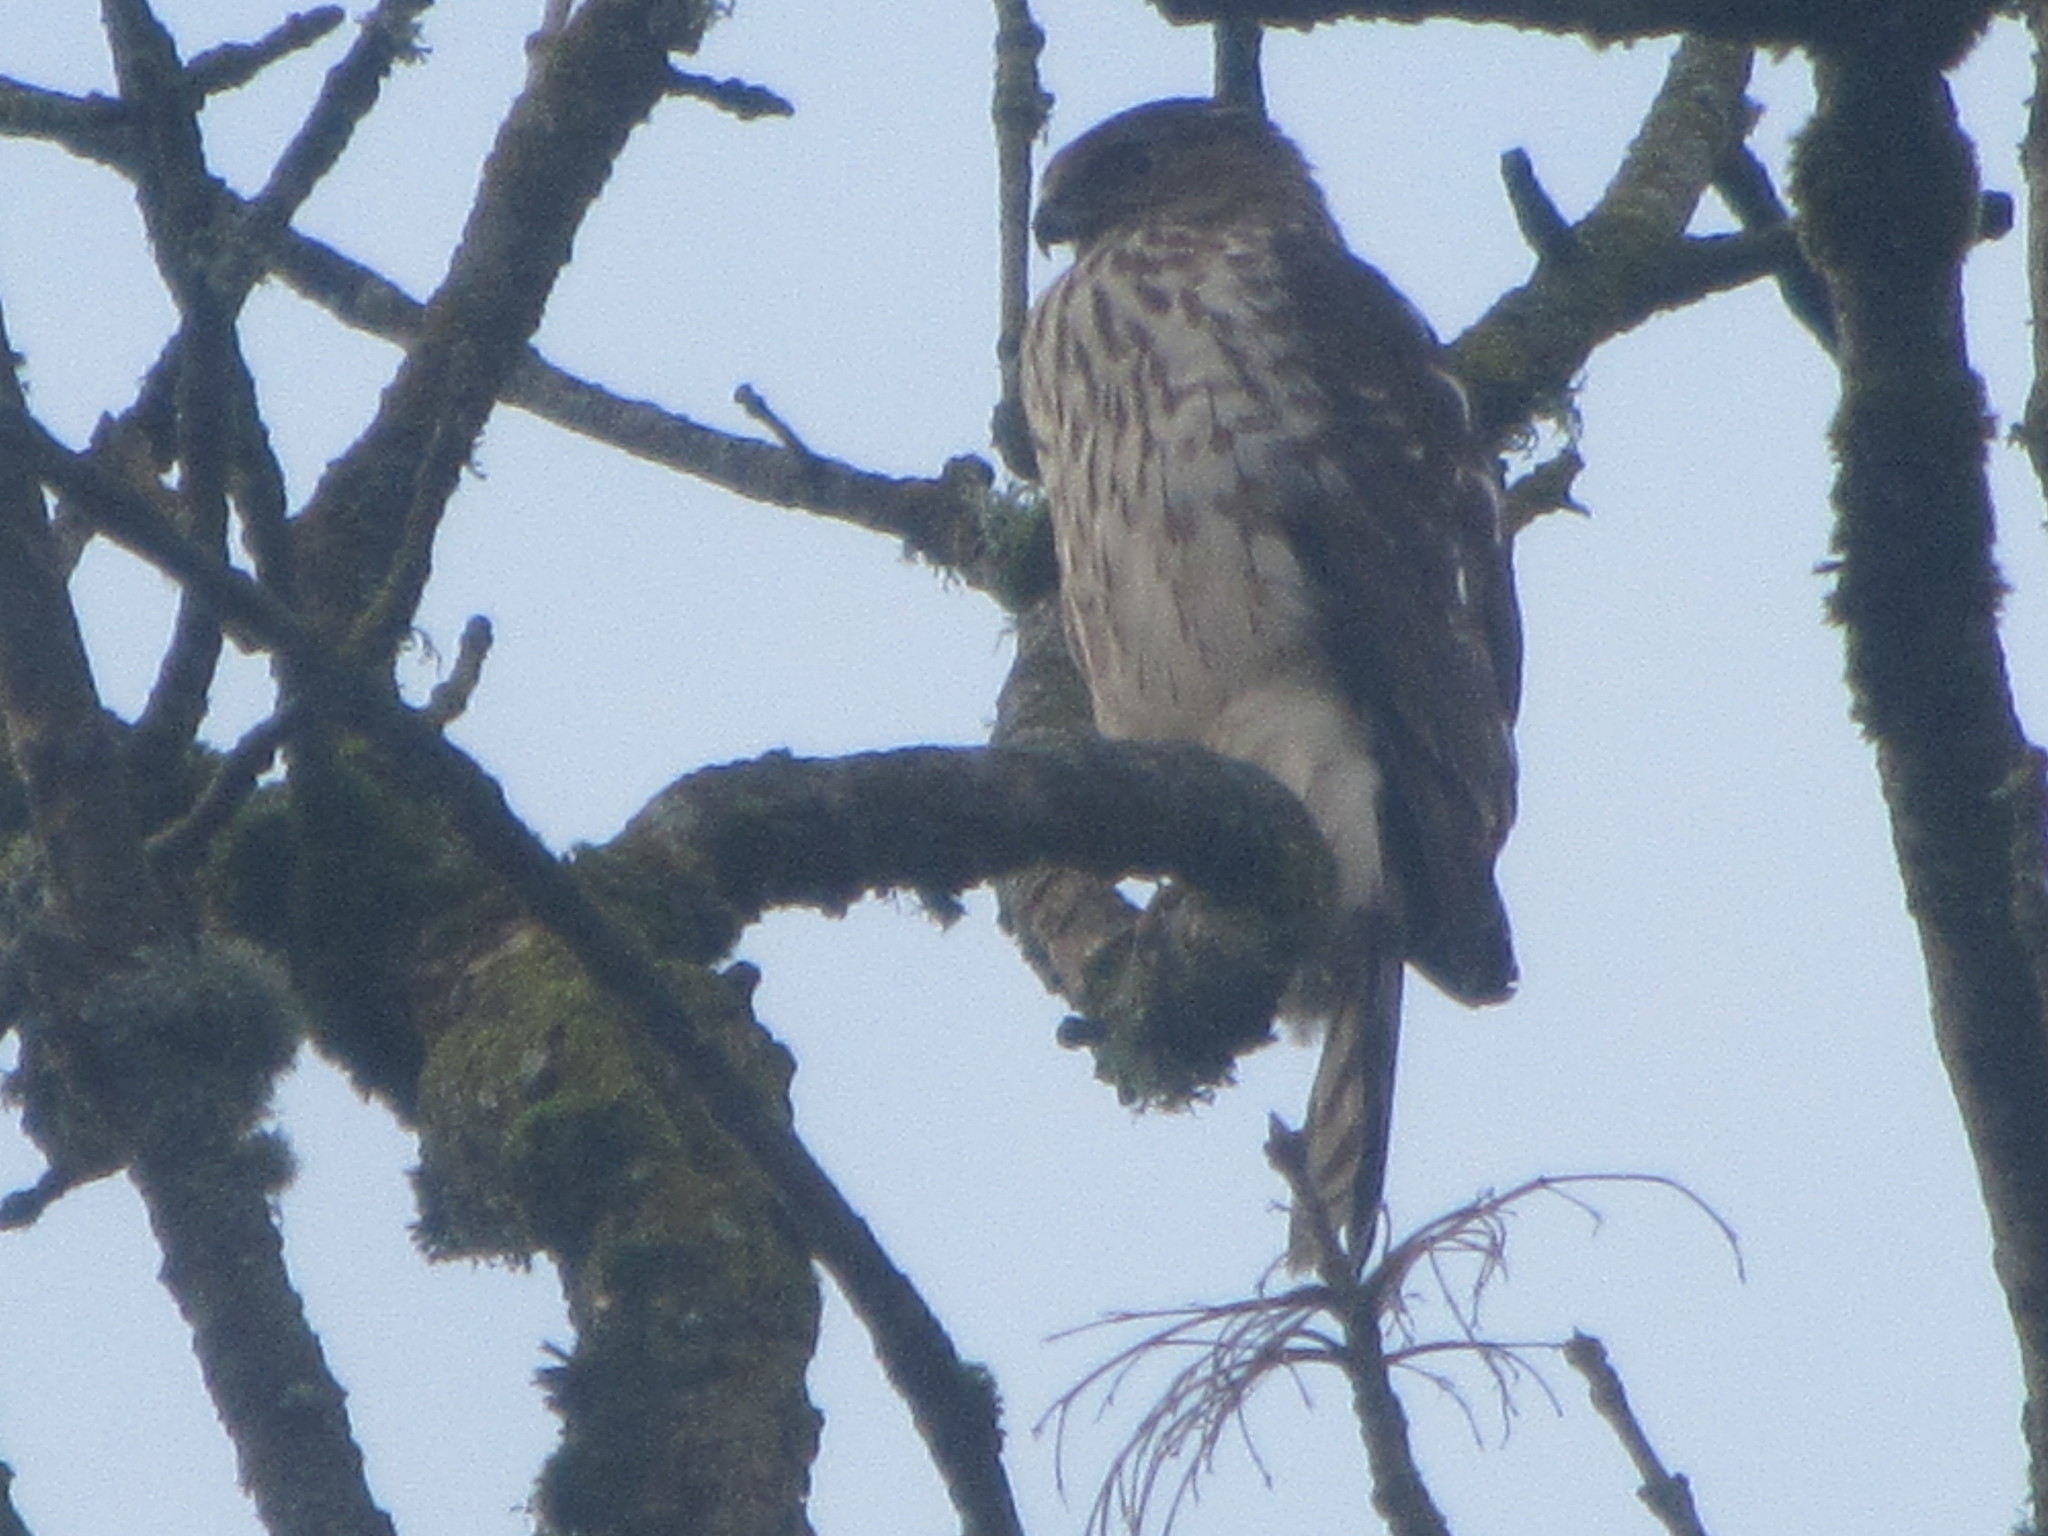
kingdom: Animalia
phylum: Chordata
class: Aves
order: Accipitriformes
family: Accipitridae
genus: Accipiter
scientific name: Accipiter cooperii
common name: Cooper's hawk
